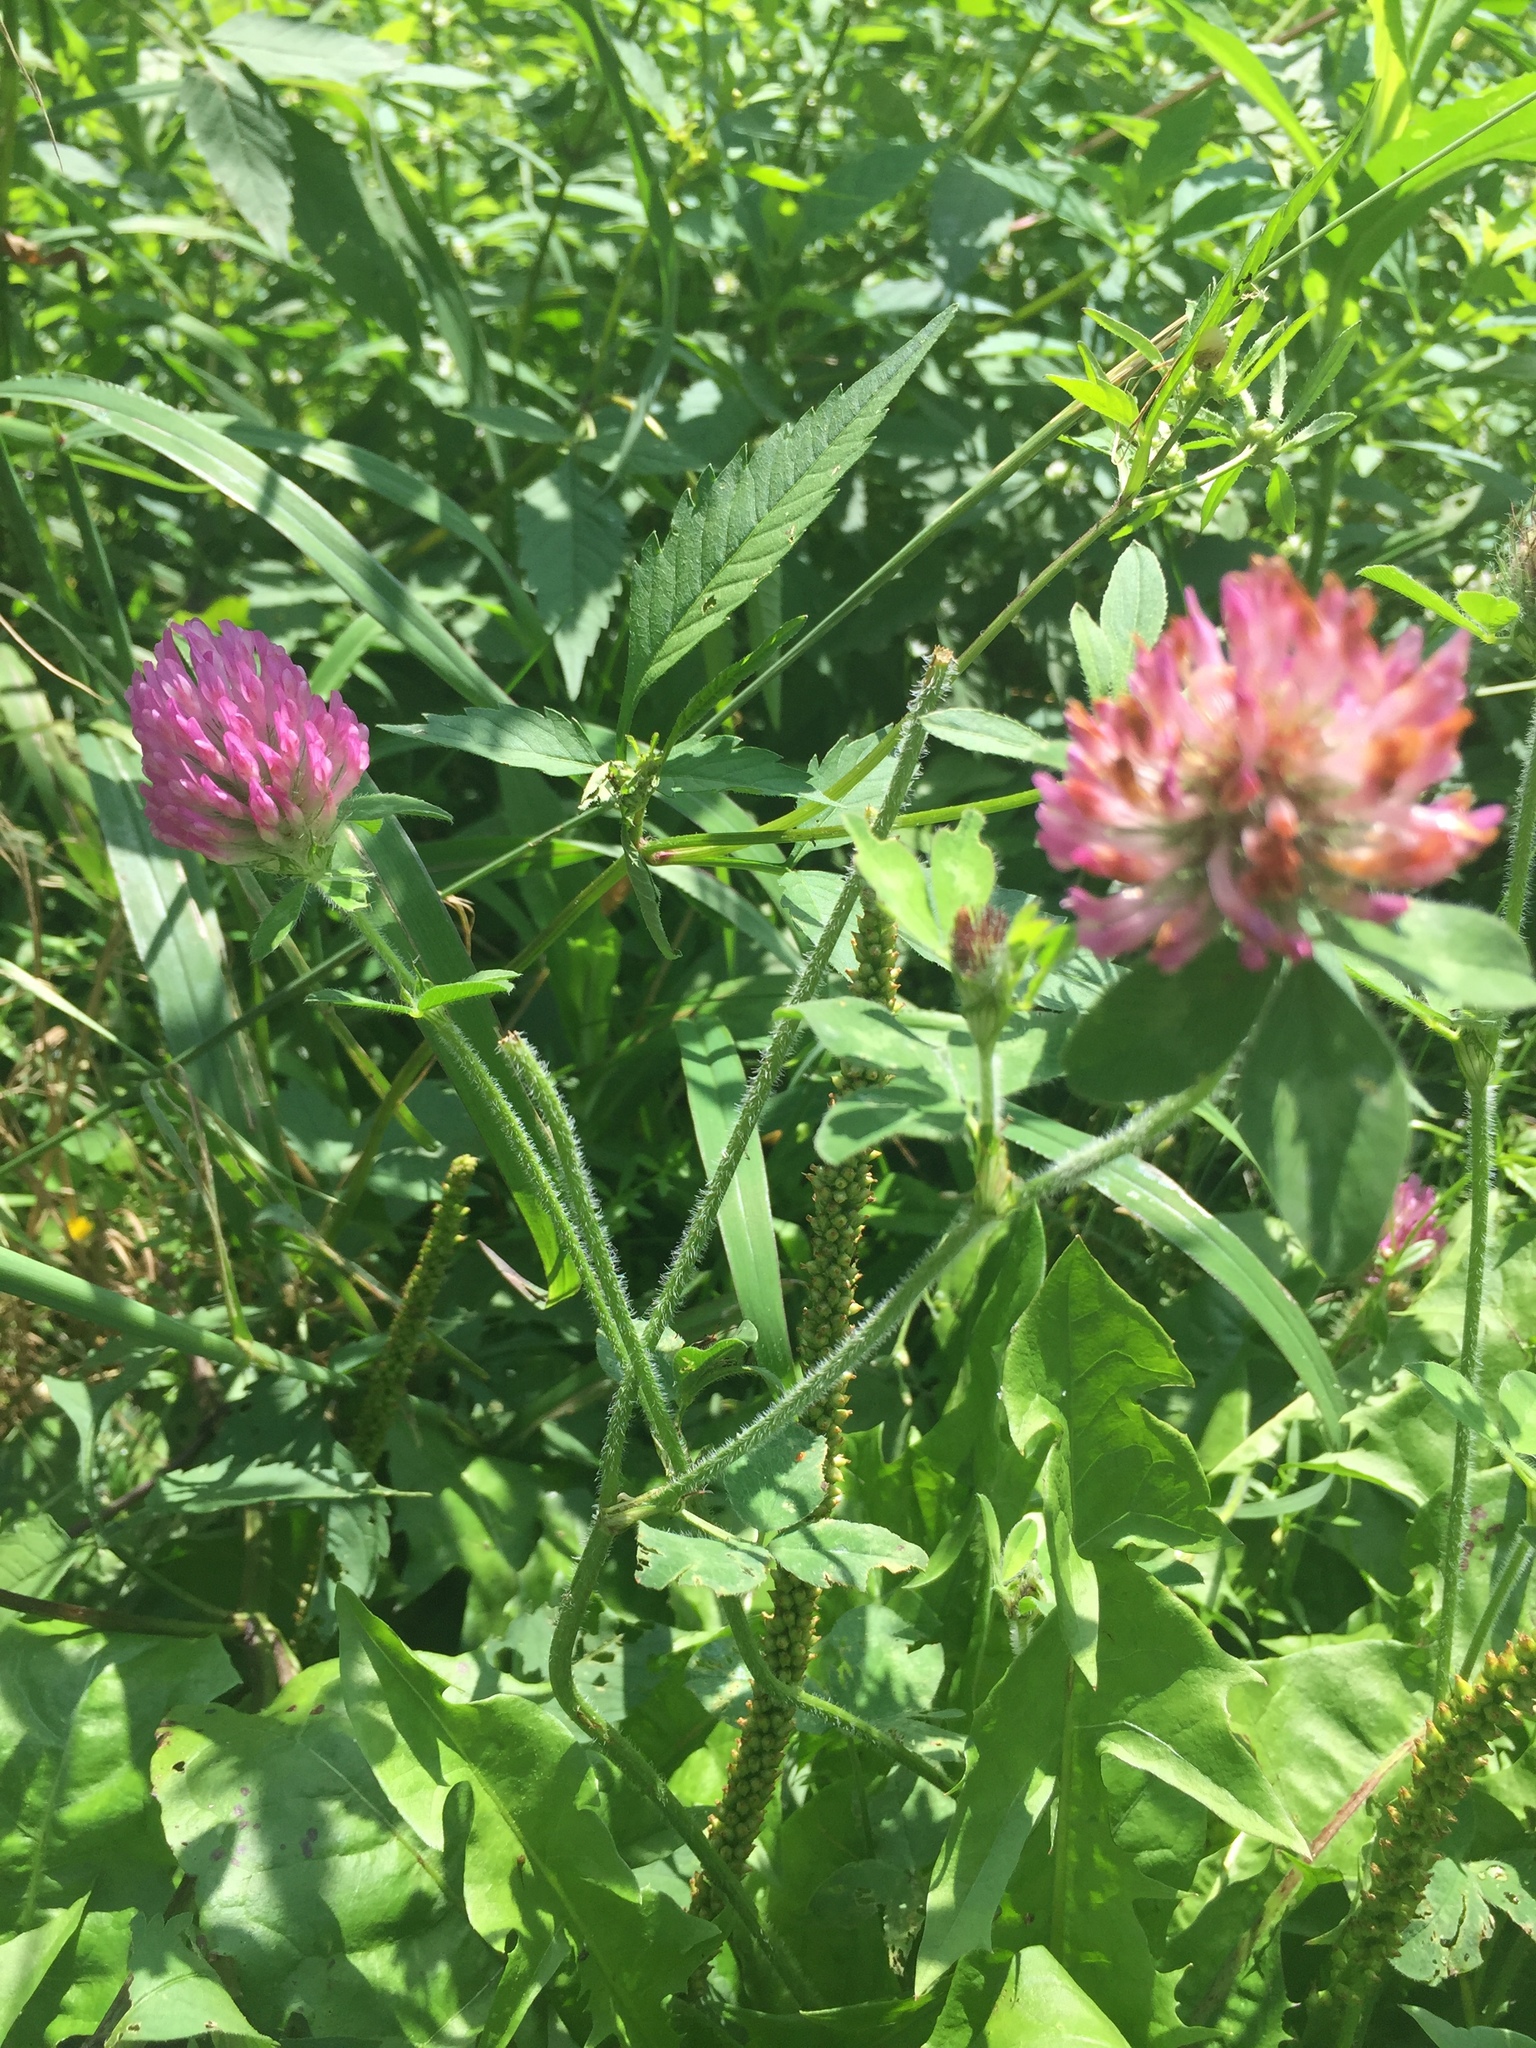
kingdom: Plantae
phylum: Tracheophyta
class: Magnoliopsida
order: Fabales
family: Fabaceae
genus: Trifolium
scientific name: Trifolium pratense
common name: Red clover
